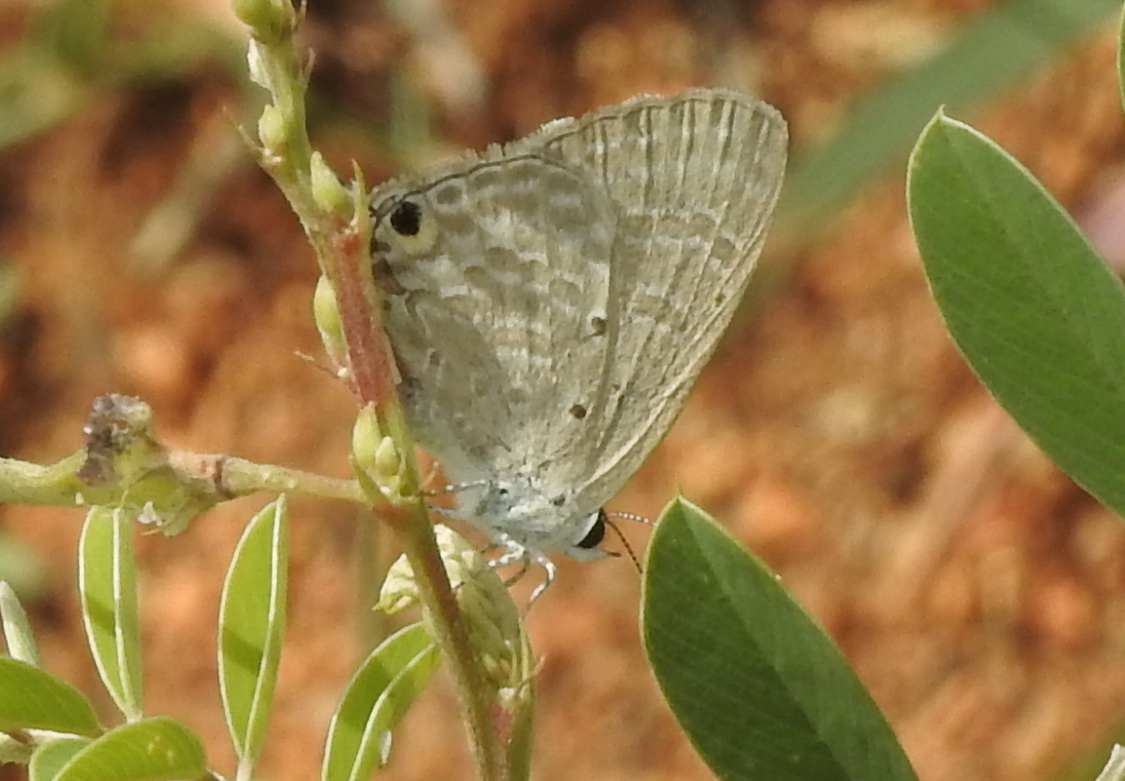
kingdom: Animalia
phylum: Arthropoda
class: Insecta
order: Lepidoptera
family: Lycaenidae
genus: Catochrysops
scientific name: Catochrysops strabo
